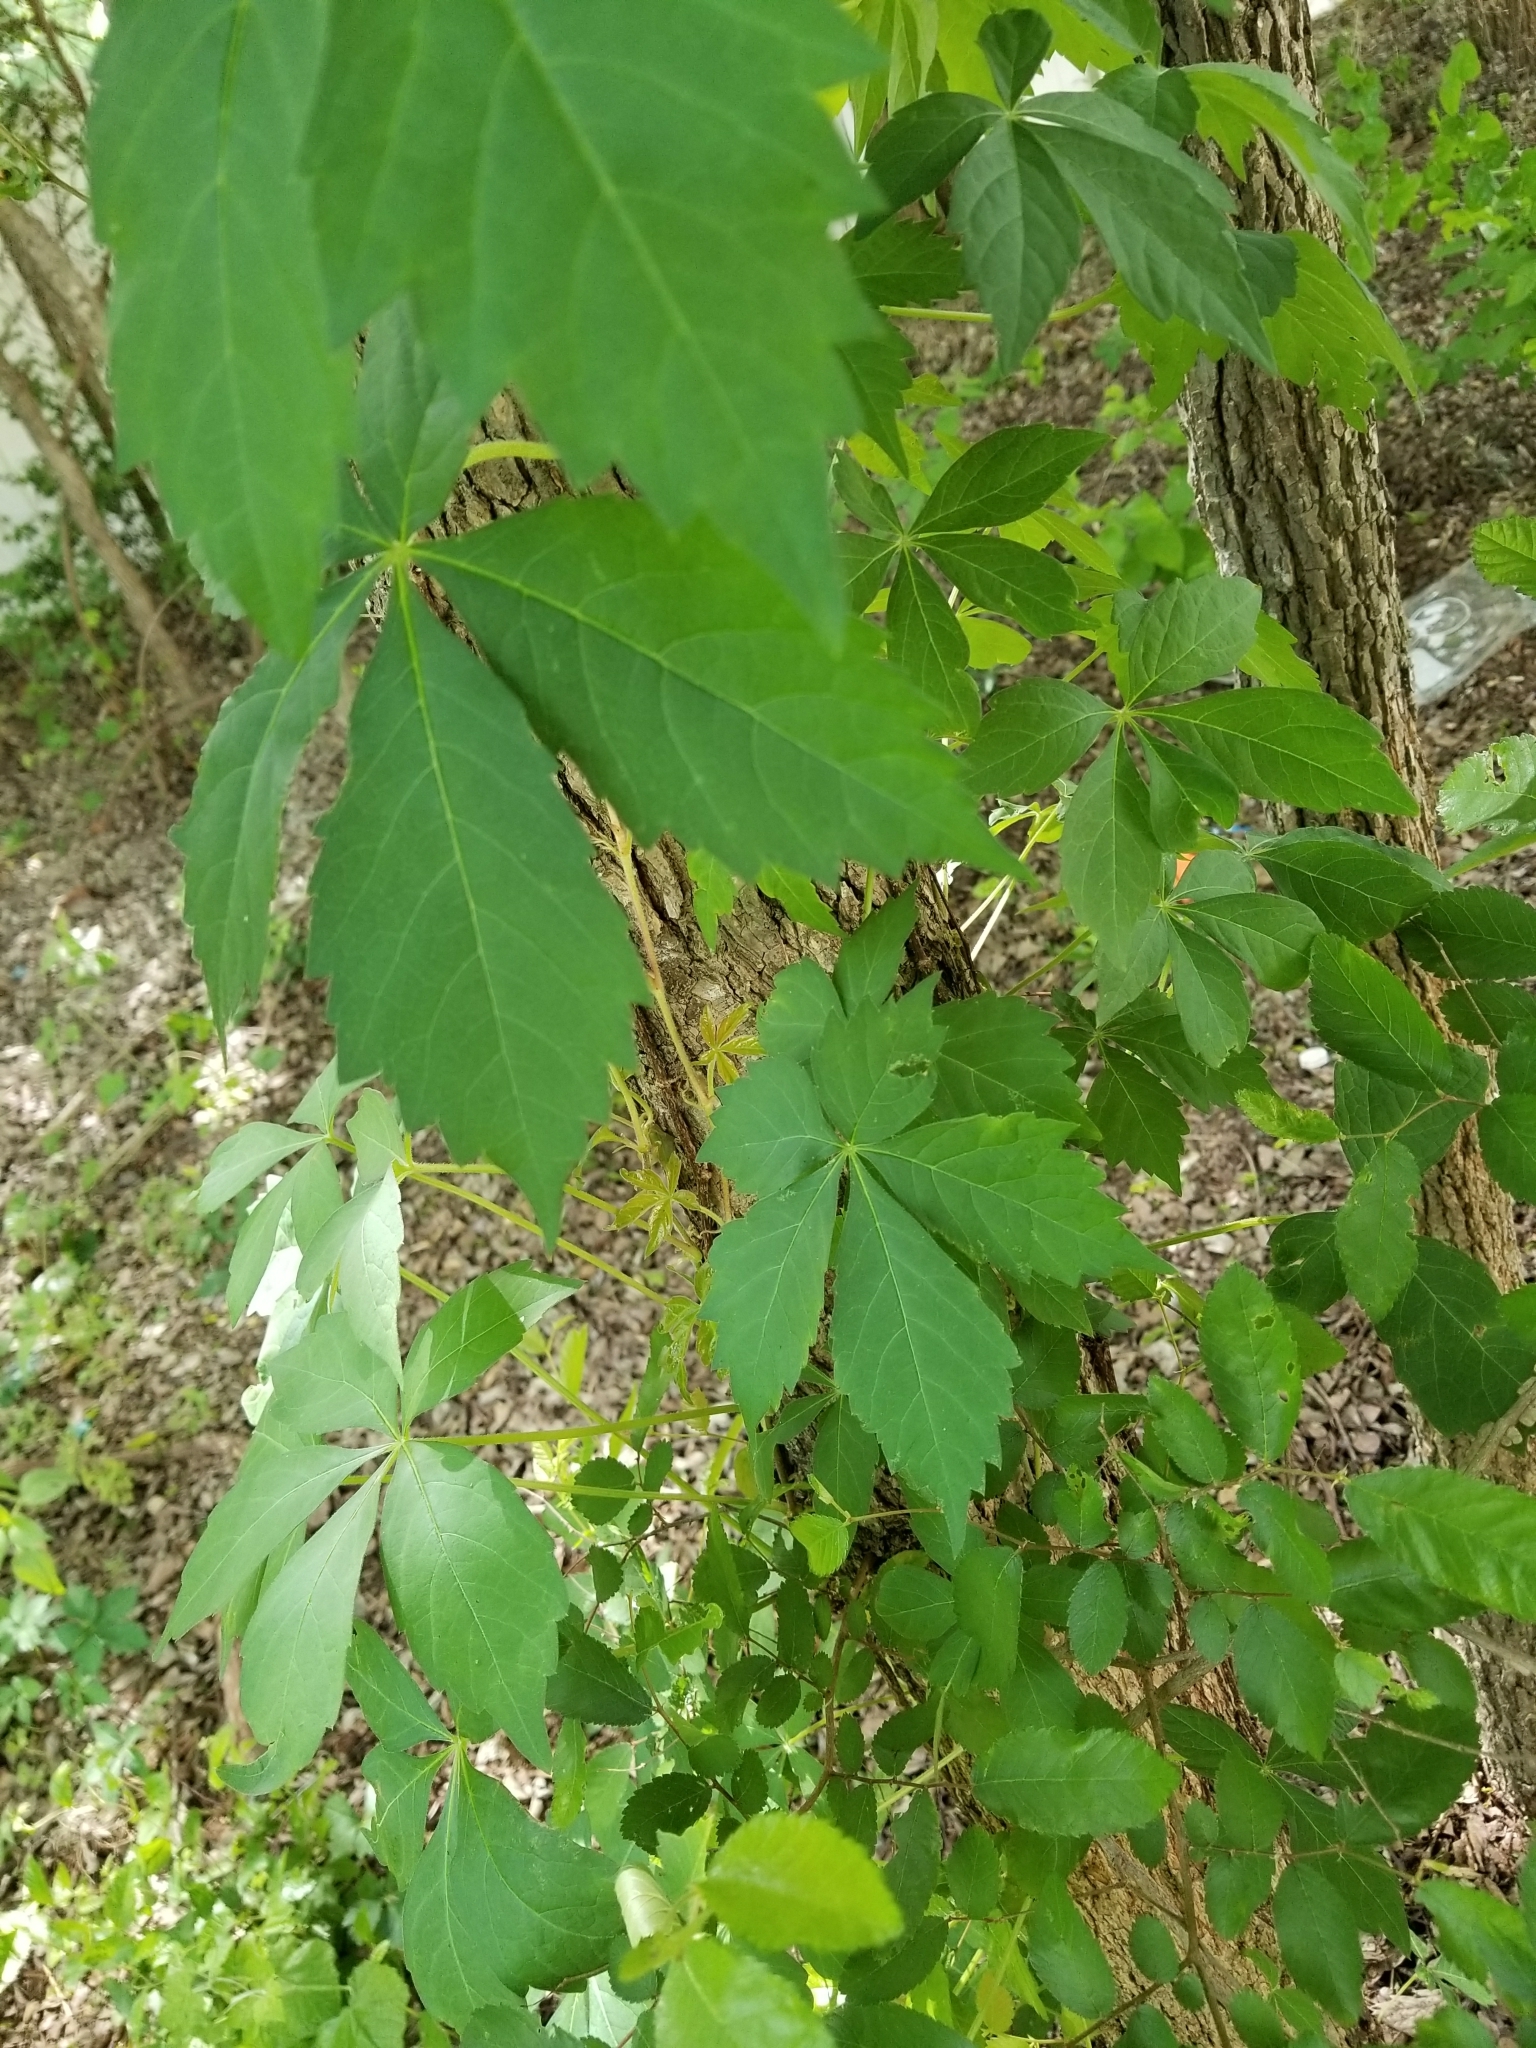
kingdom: Plantae
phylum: Tracheophyta
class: Magnoliopsida
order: Vitales
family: Vitaceae
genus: Parthenocissus
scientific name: Parthenocissus quinquefolia
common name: Virginia-creeper
